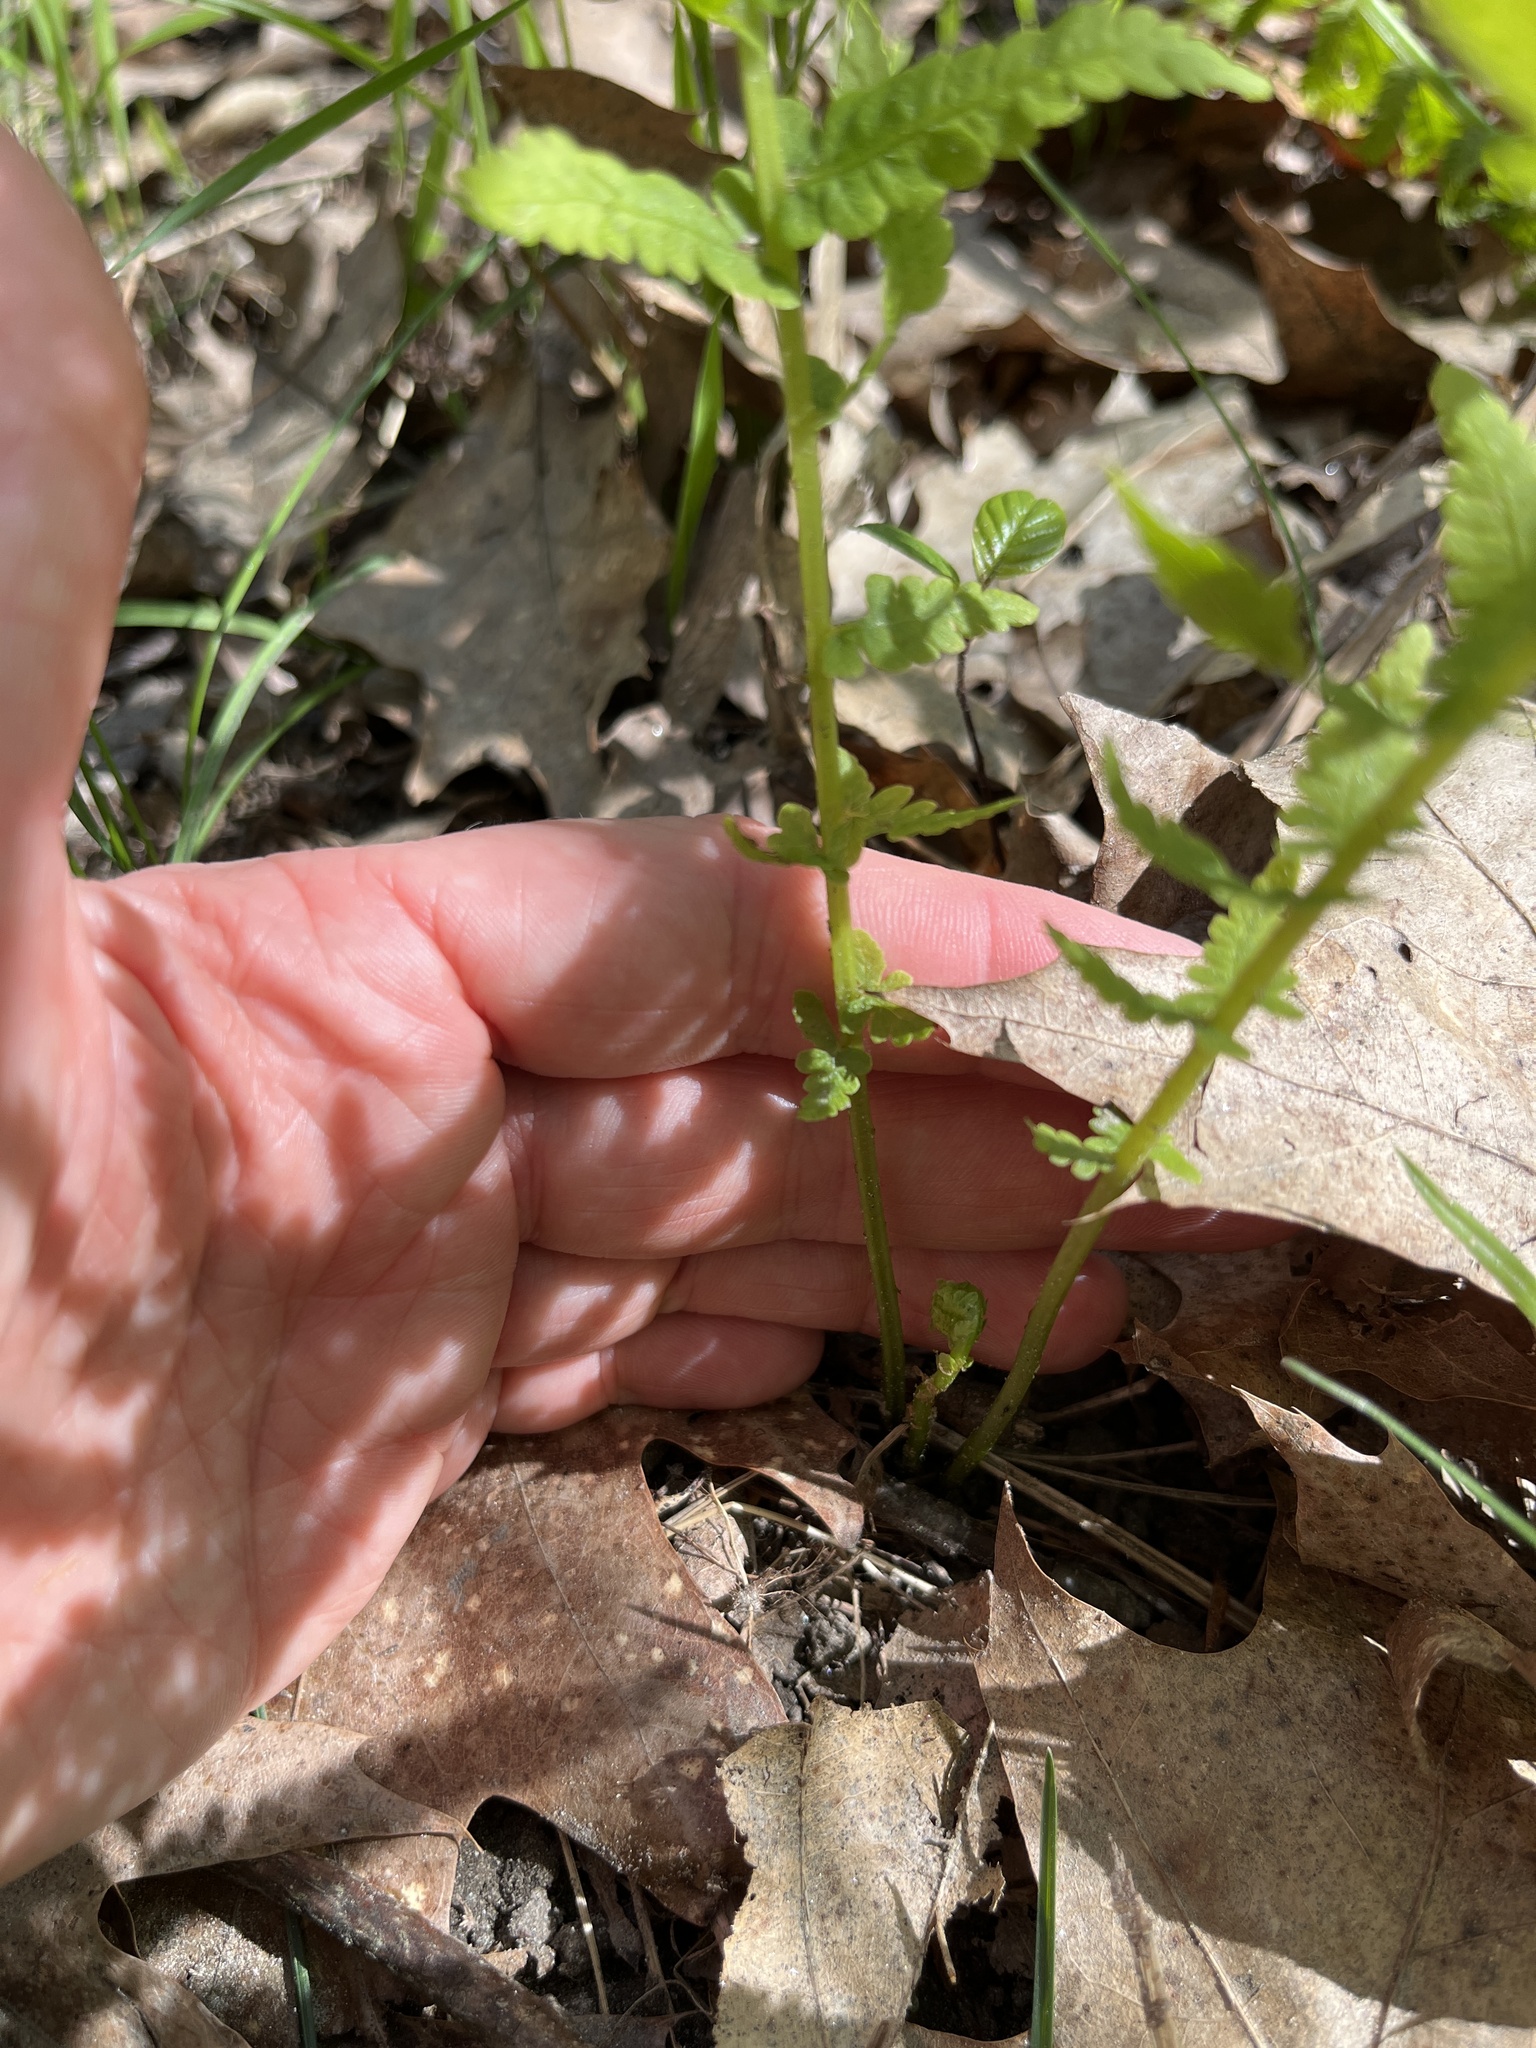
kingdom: Plantae
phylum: Tracheophyta
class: Polypodiopsida
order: Polypodiales
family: Thelypteridaceae
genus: Amauropelta
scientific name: Amauropelta noveboracensis
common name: New york fern
